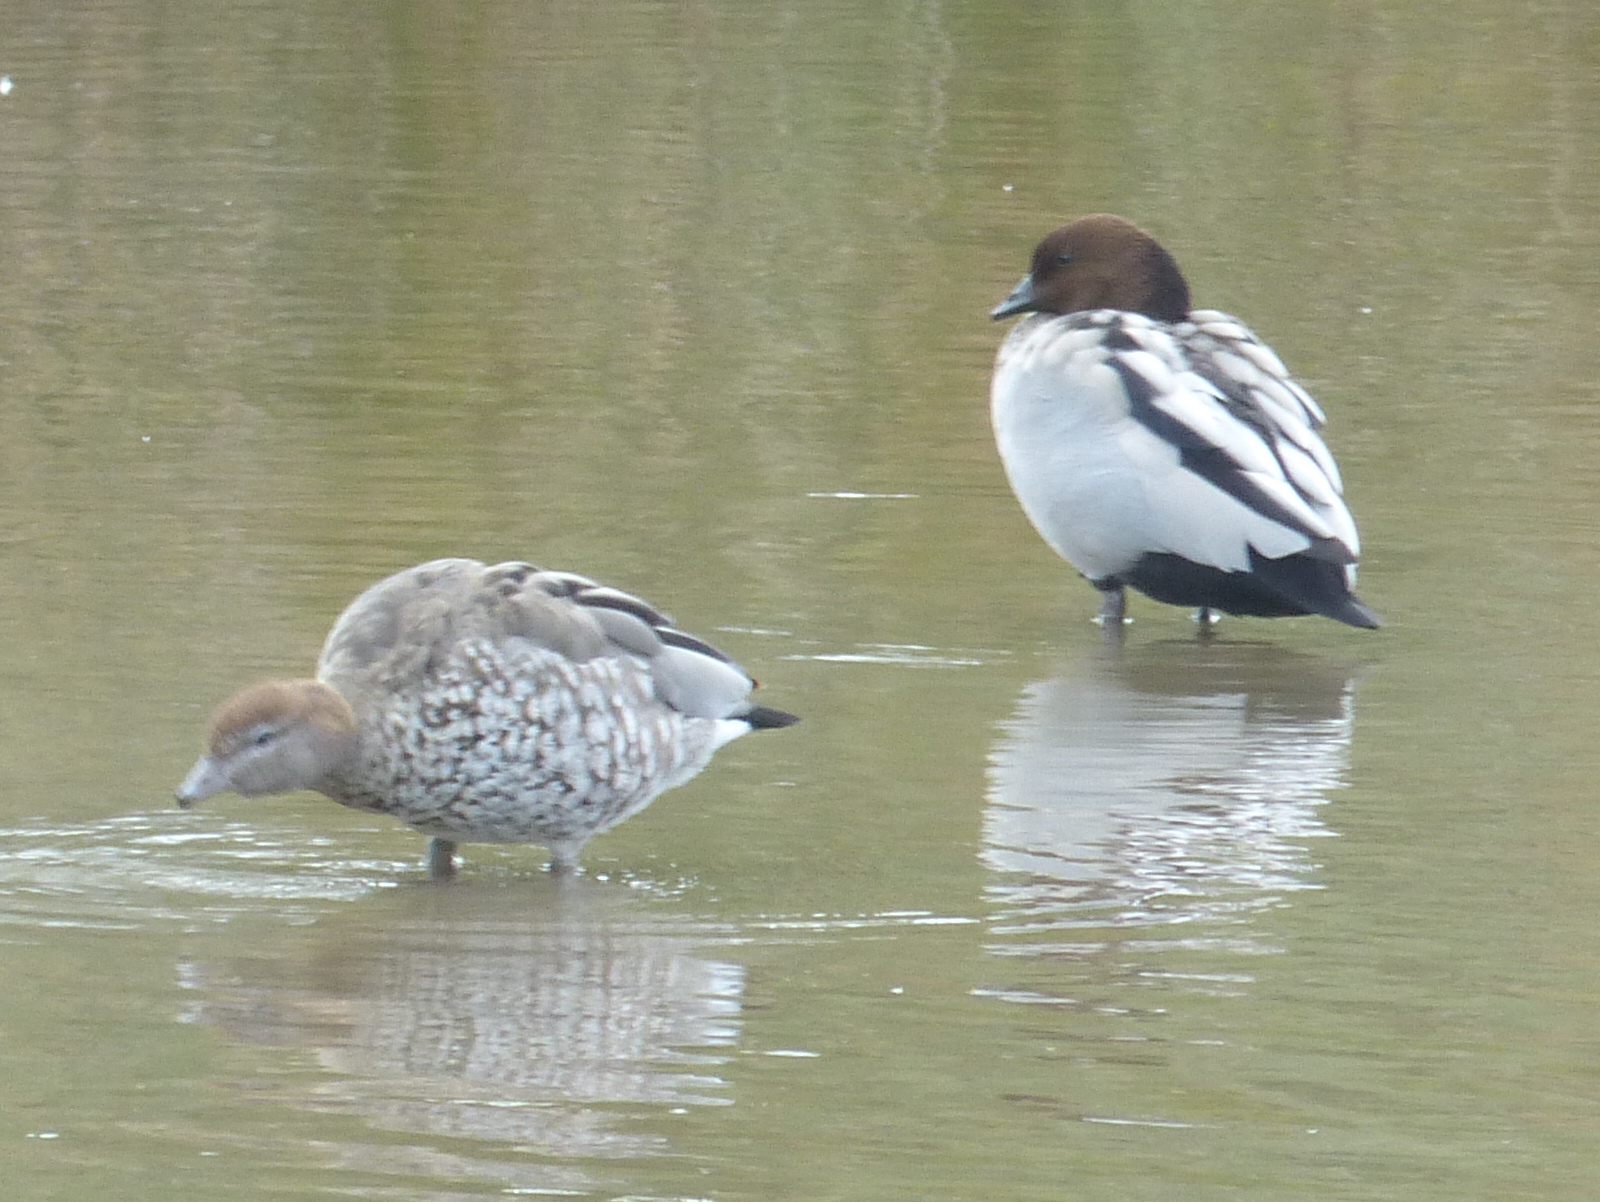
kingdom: Animalia
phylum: Chordata
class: Aves
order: Anseriformes
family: Anatidae
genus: Chenonetta
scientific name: Chenonetta jubata
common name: Maned duck
